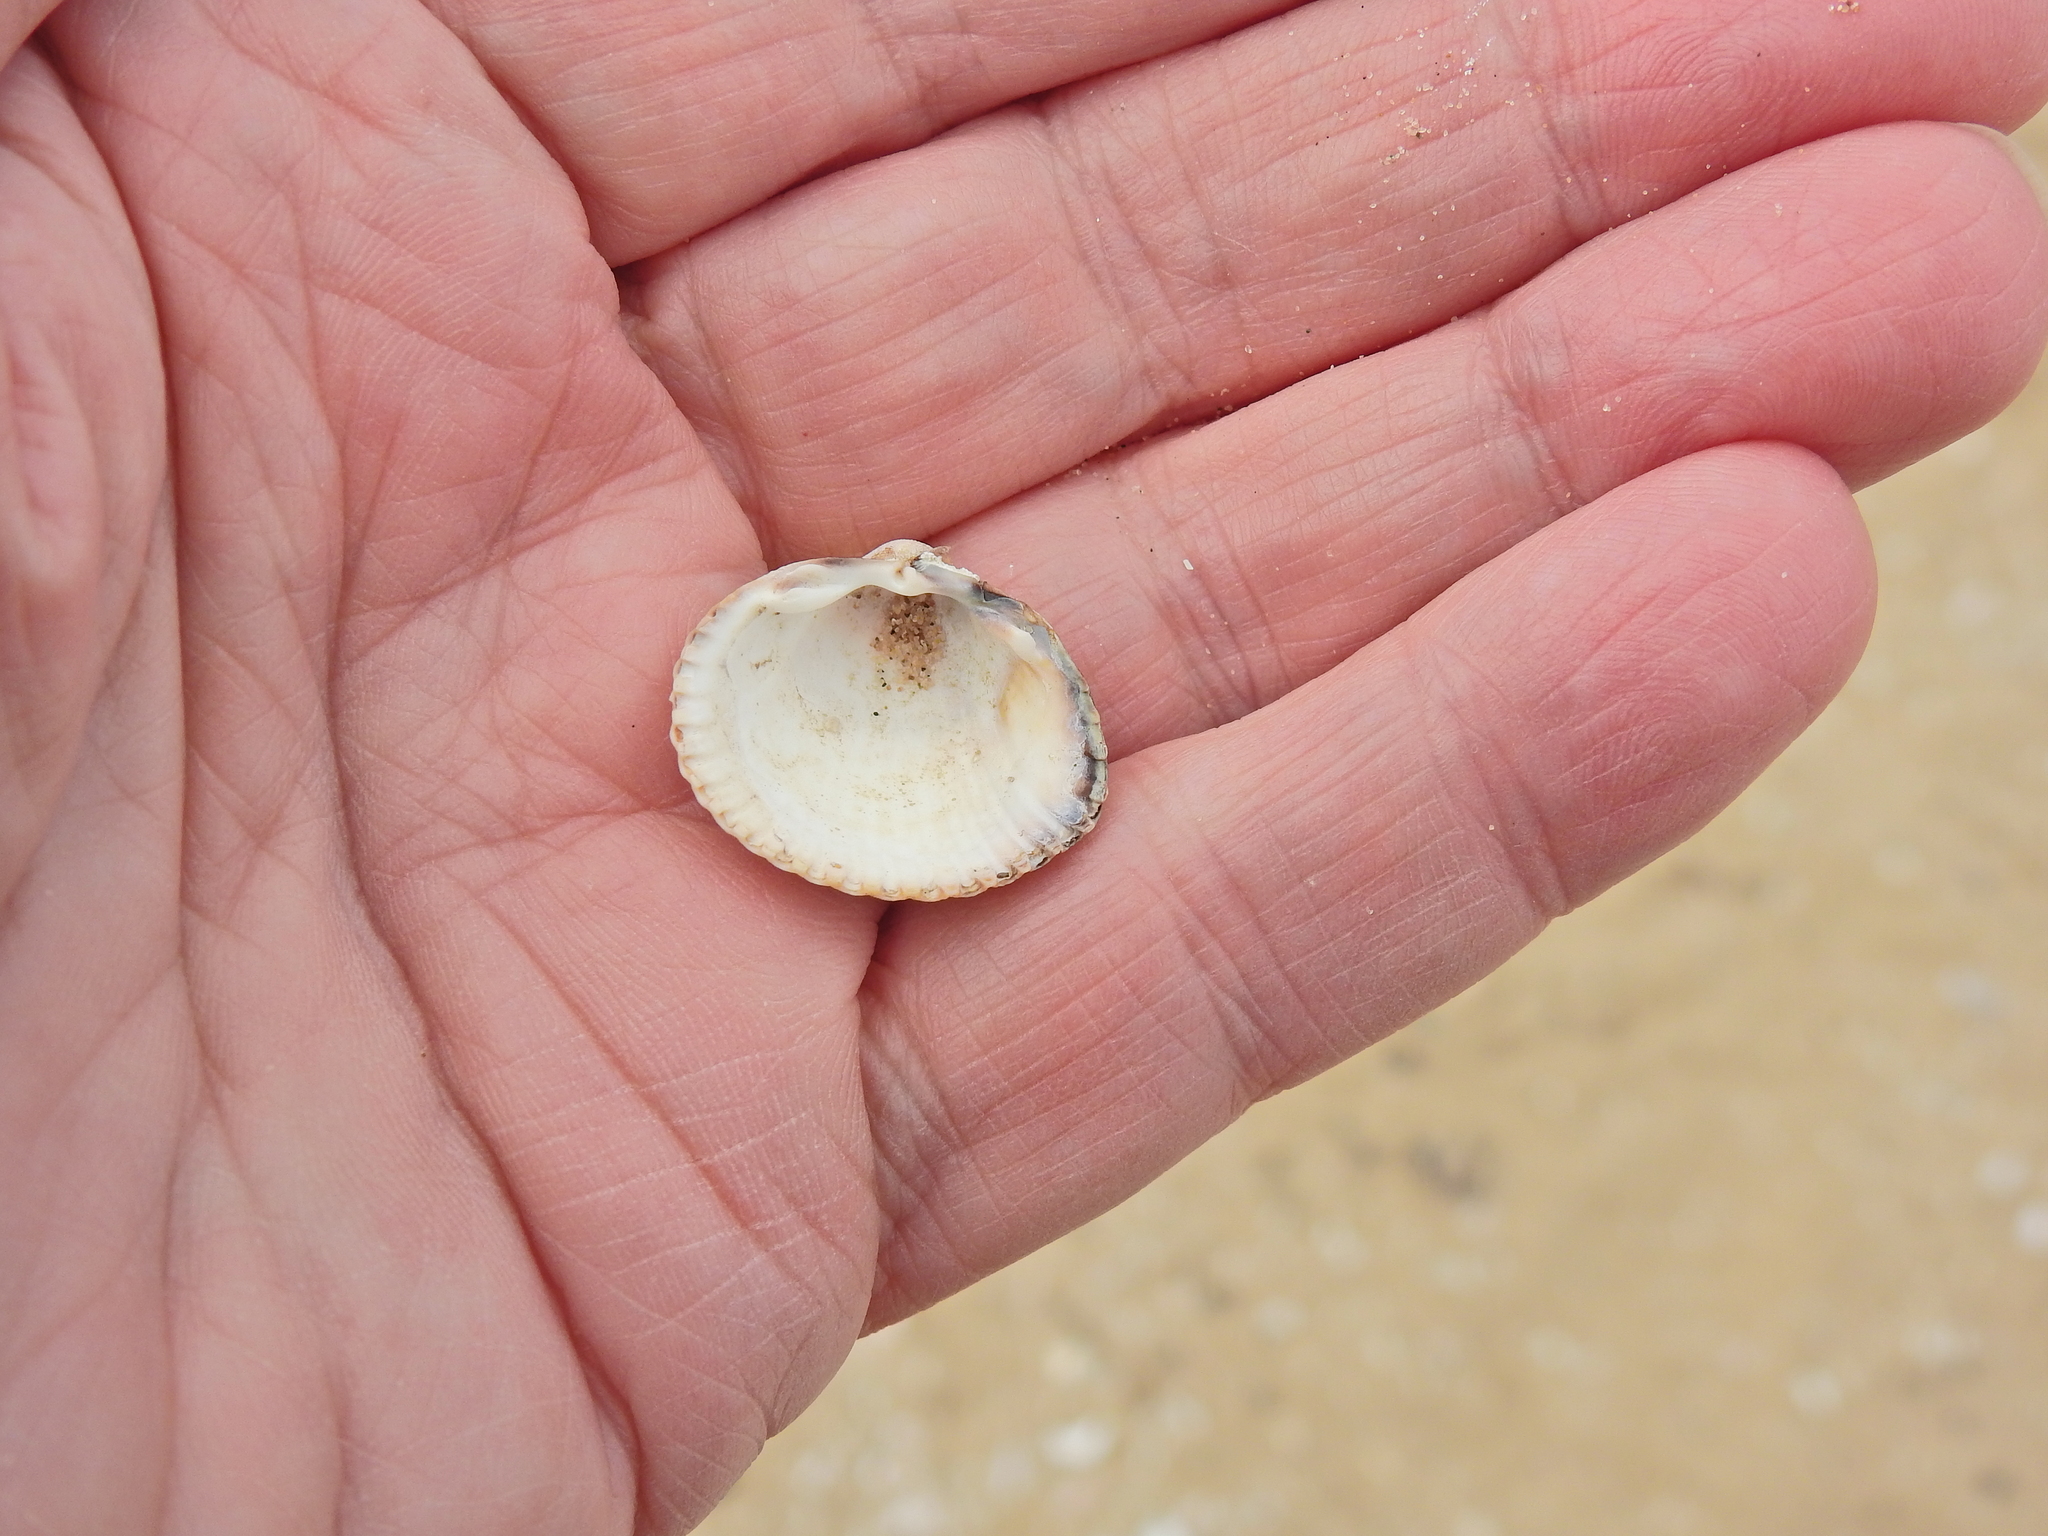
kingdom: Animalia
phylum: Mollusca
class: Bivalvia
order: Cardiida
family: Cardiidae
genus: Cerastoderma
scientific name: Cerastoderma edule
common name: Common cockle
